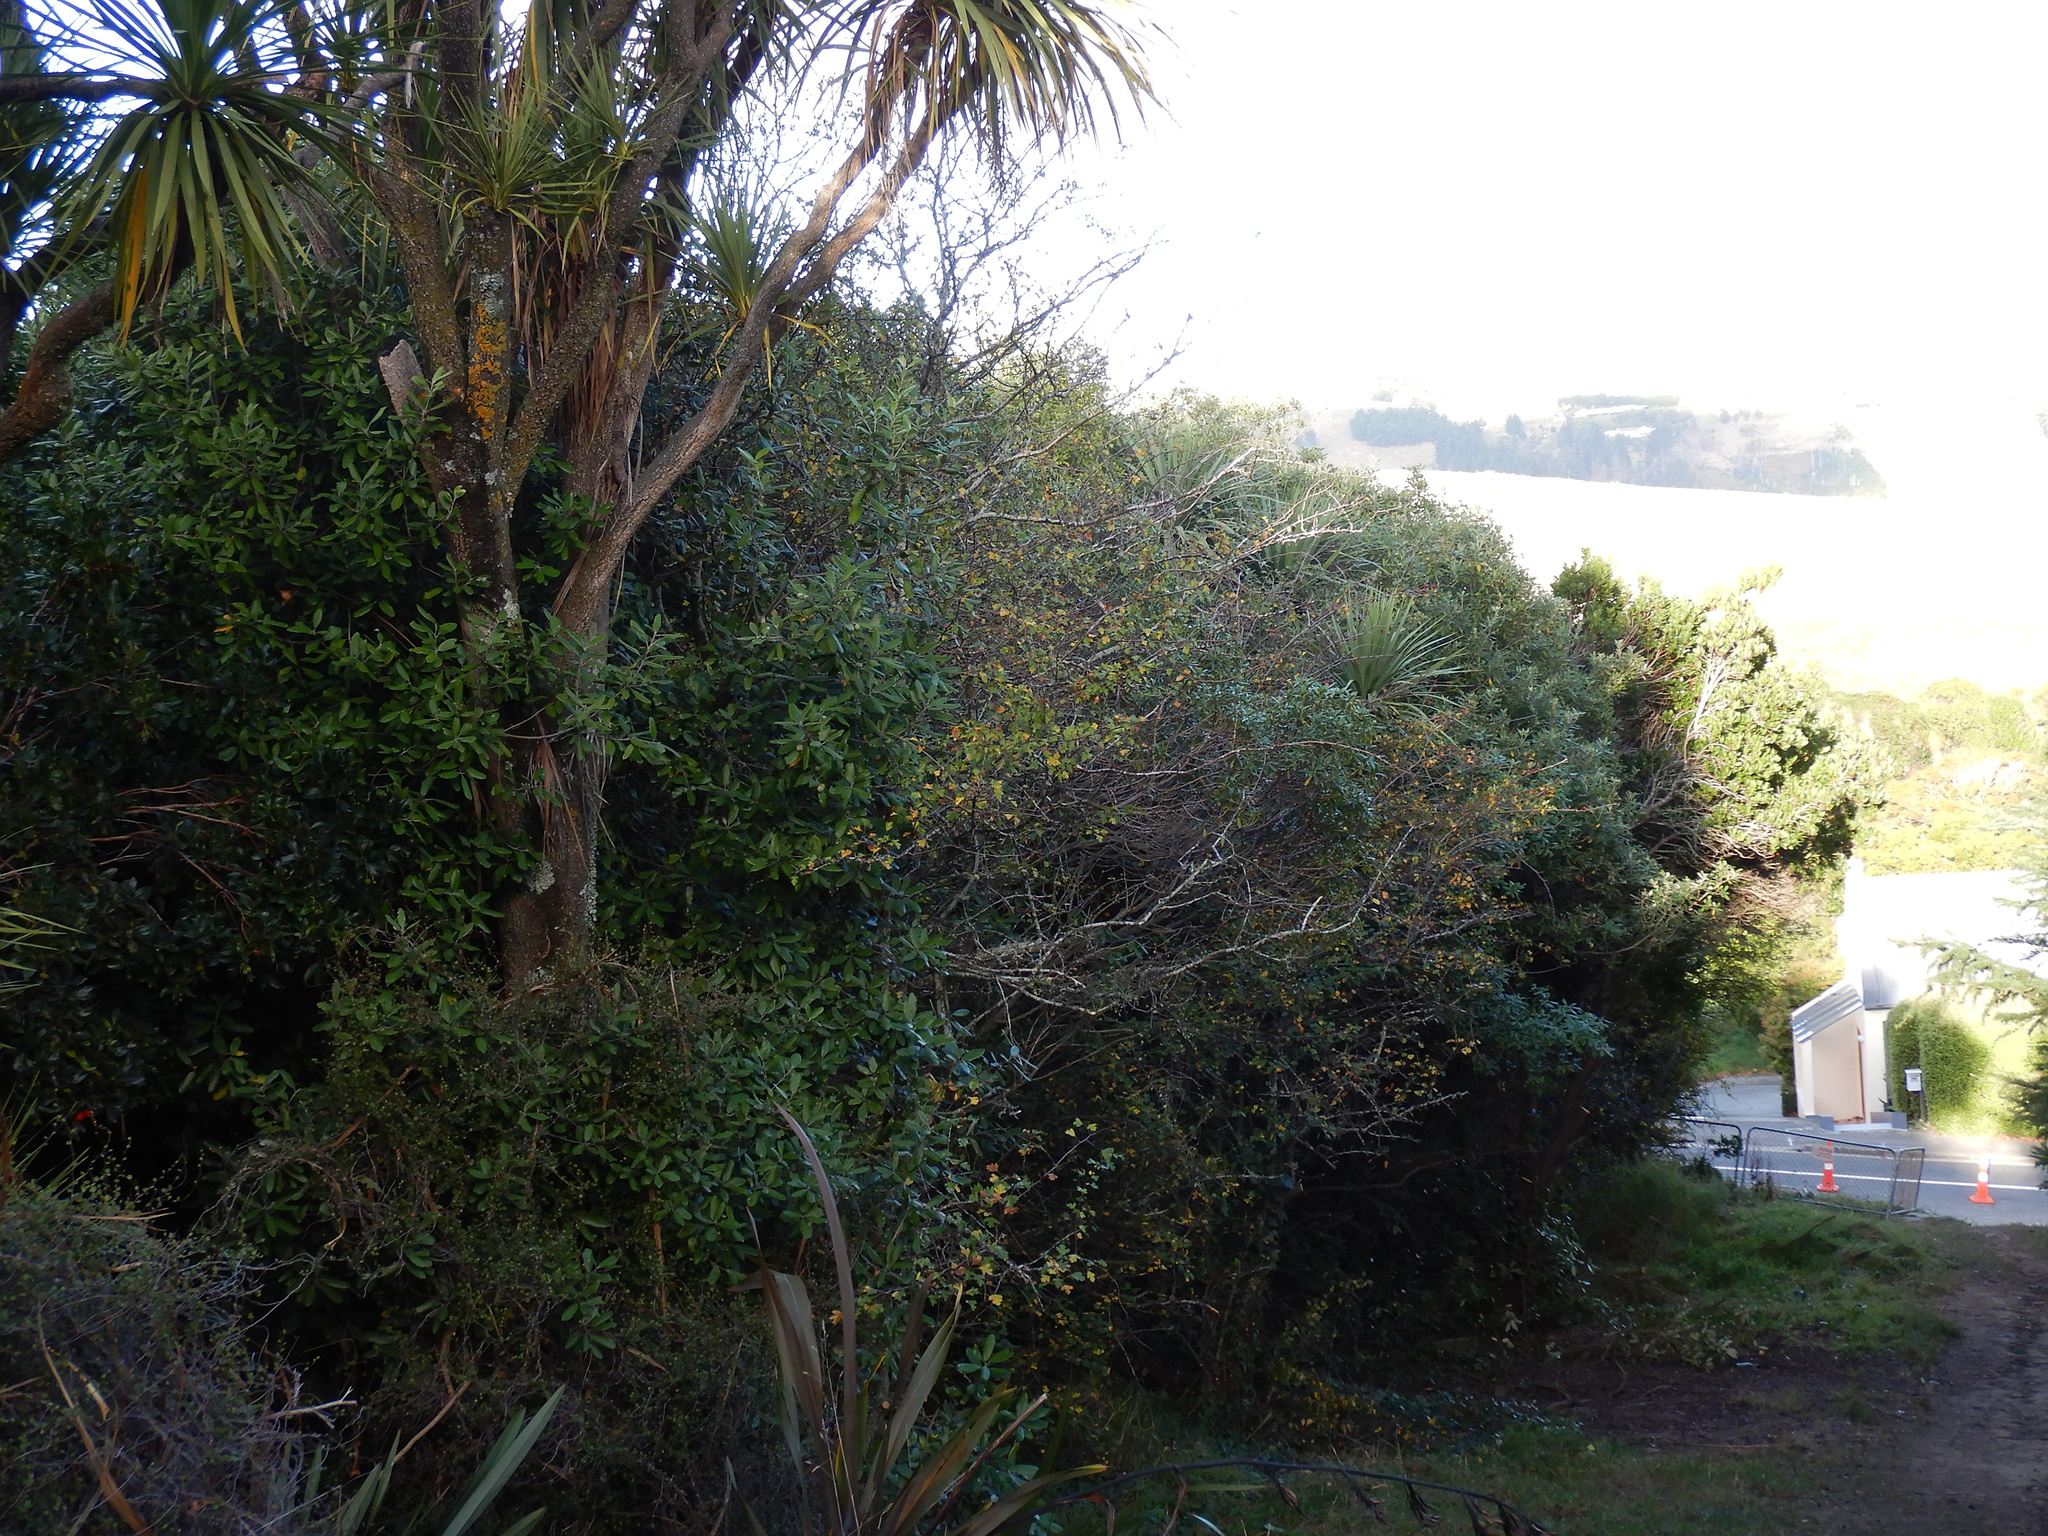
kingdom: Plantae
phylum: Tracheophyta
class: Magnoliopsida
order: Rosales
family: Rosaceae
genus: Crataegus
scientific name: Crataegus monogyna
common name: Hawthorn
